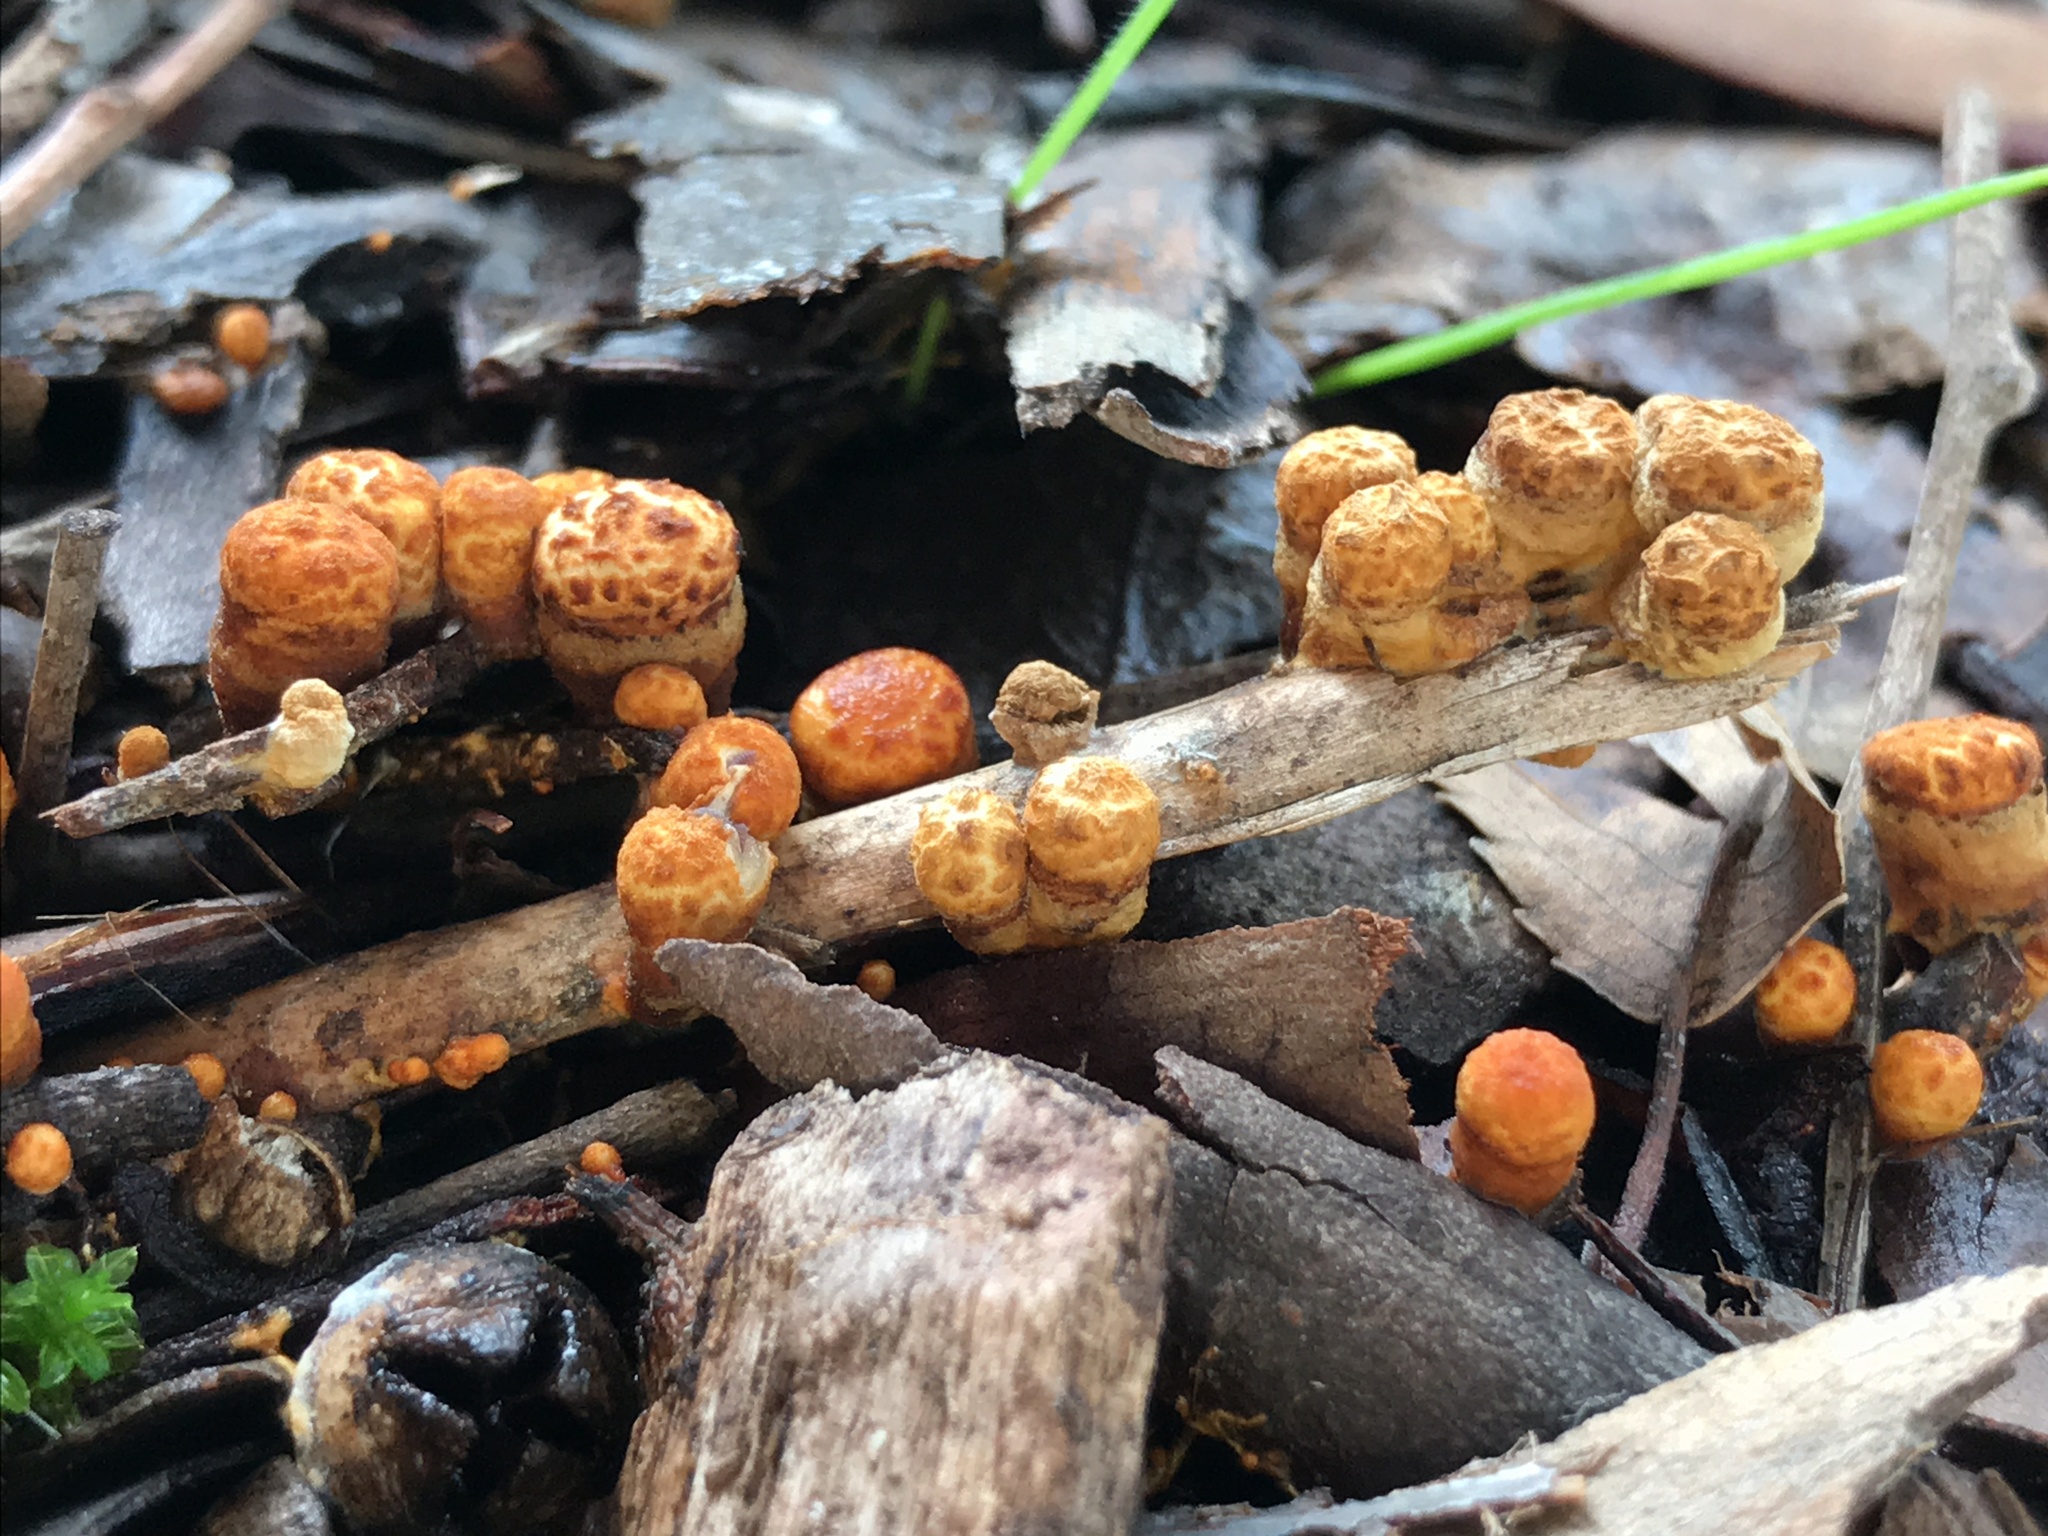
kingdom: Fungi
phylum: Basidiomycota
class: Agaricomycetes
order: Agaricales
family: Nidulariaceae
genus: Crucibulum
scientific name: Crucibulum laeve
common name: Common bird's nest
